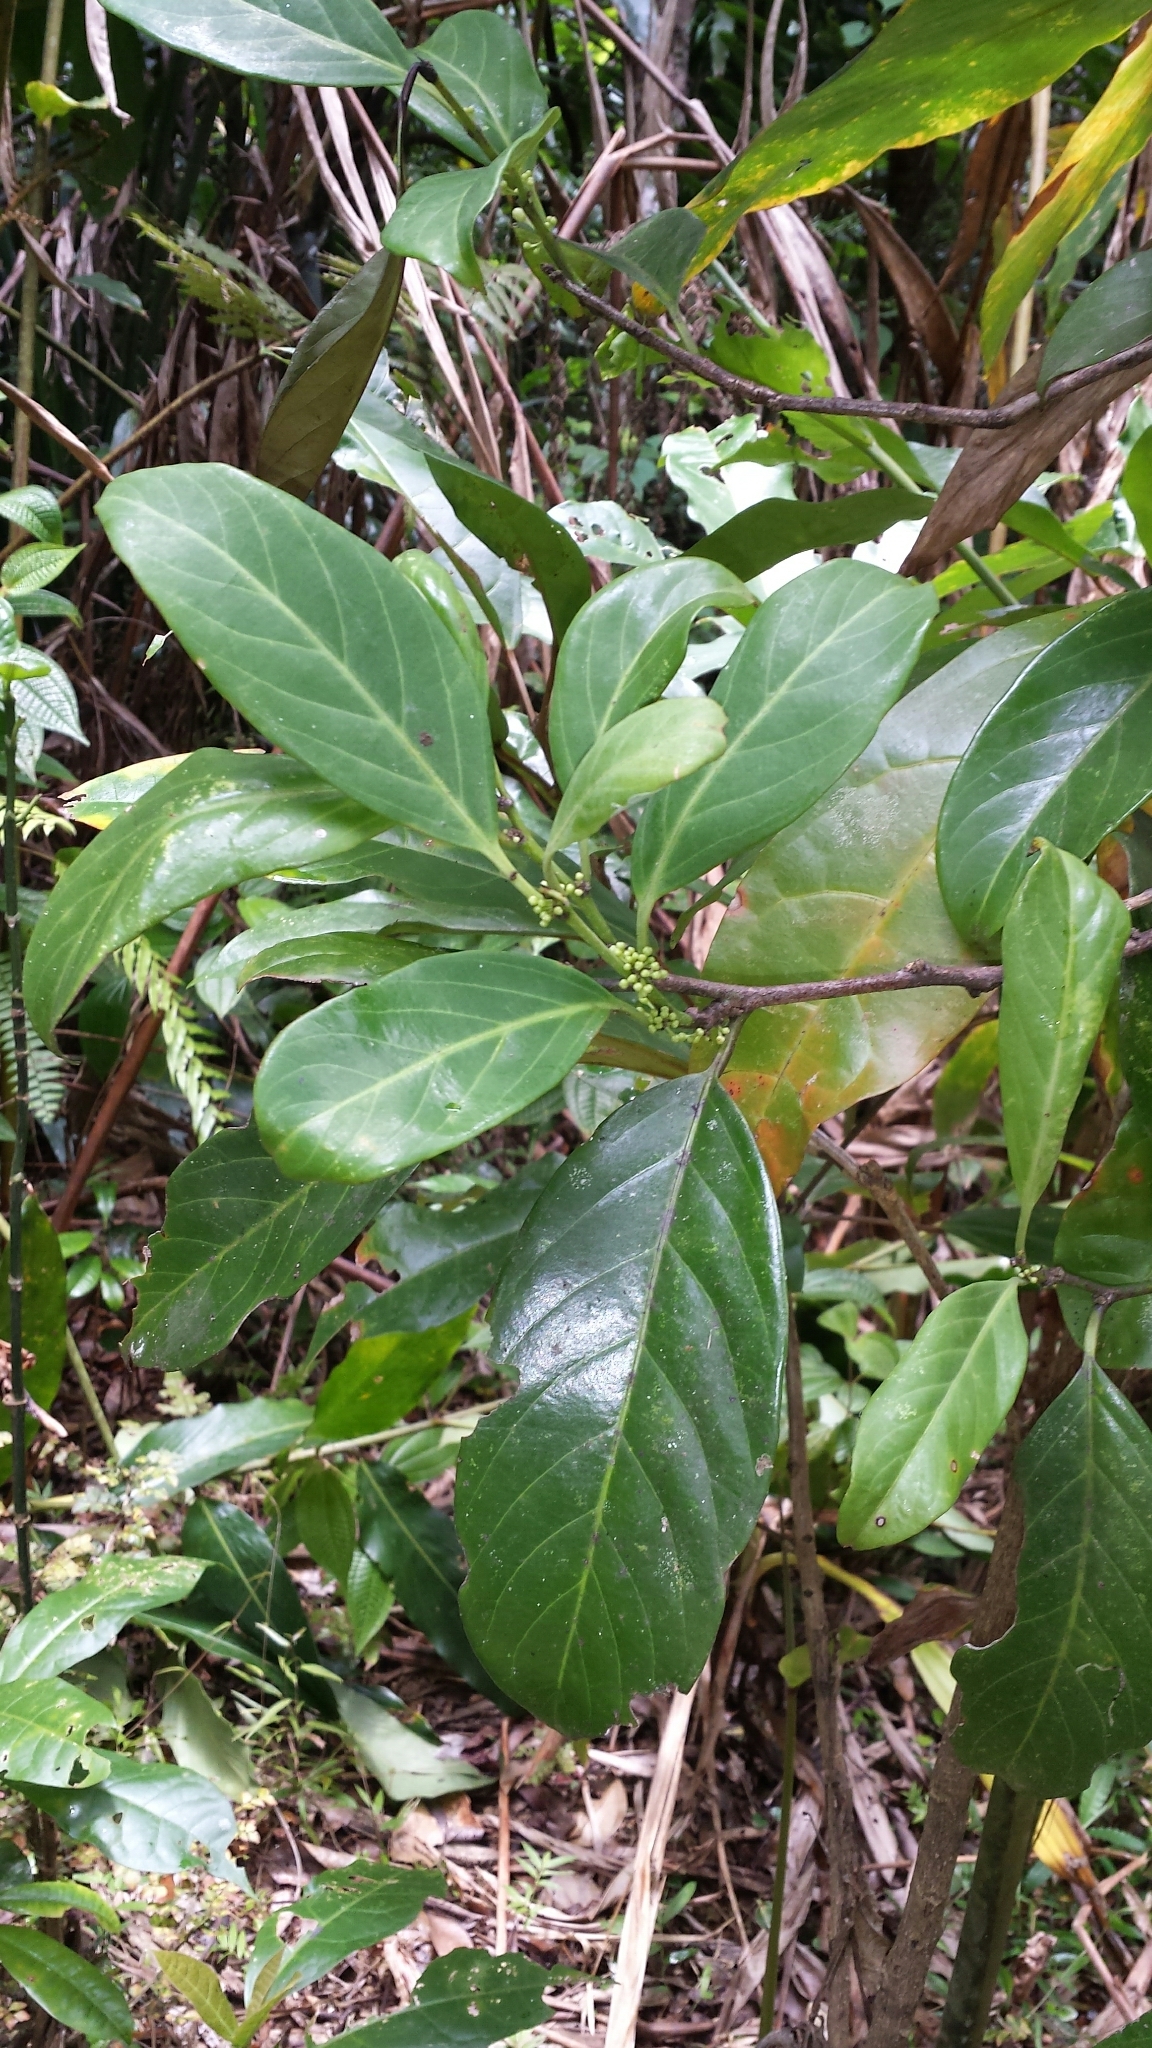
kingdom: Plantae
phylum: Tracheophyta
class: Magnoliopsida
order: Malpighiales
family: Salicaceae
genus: Casearia
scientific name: Casearia nigrescens
